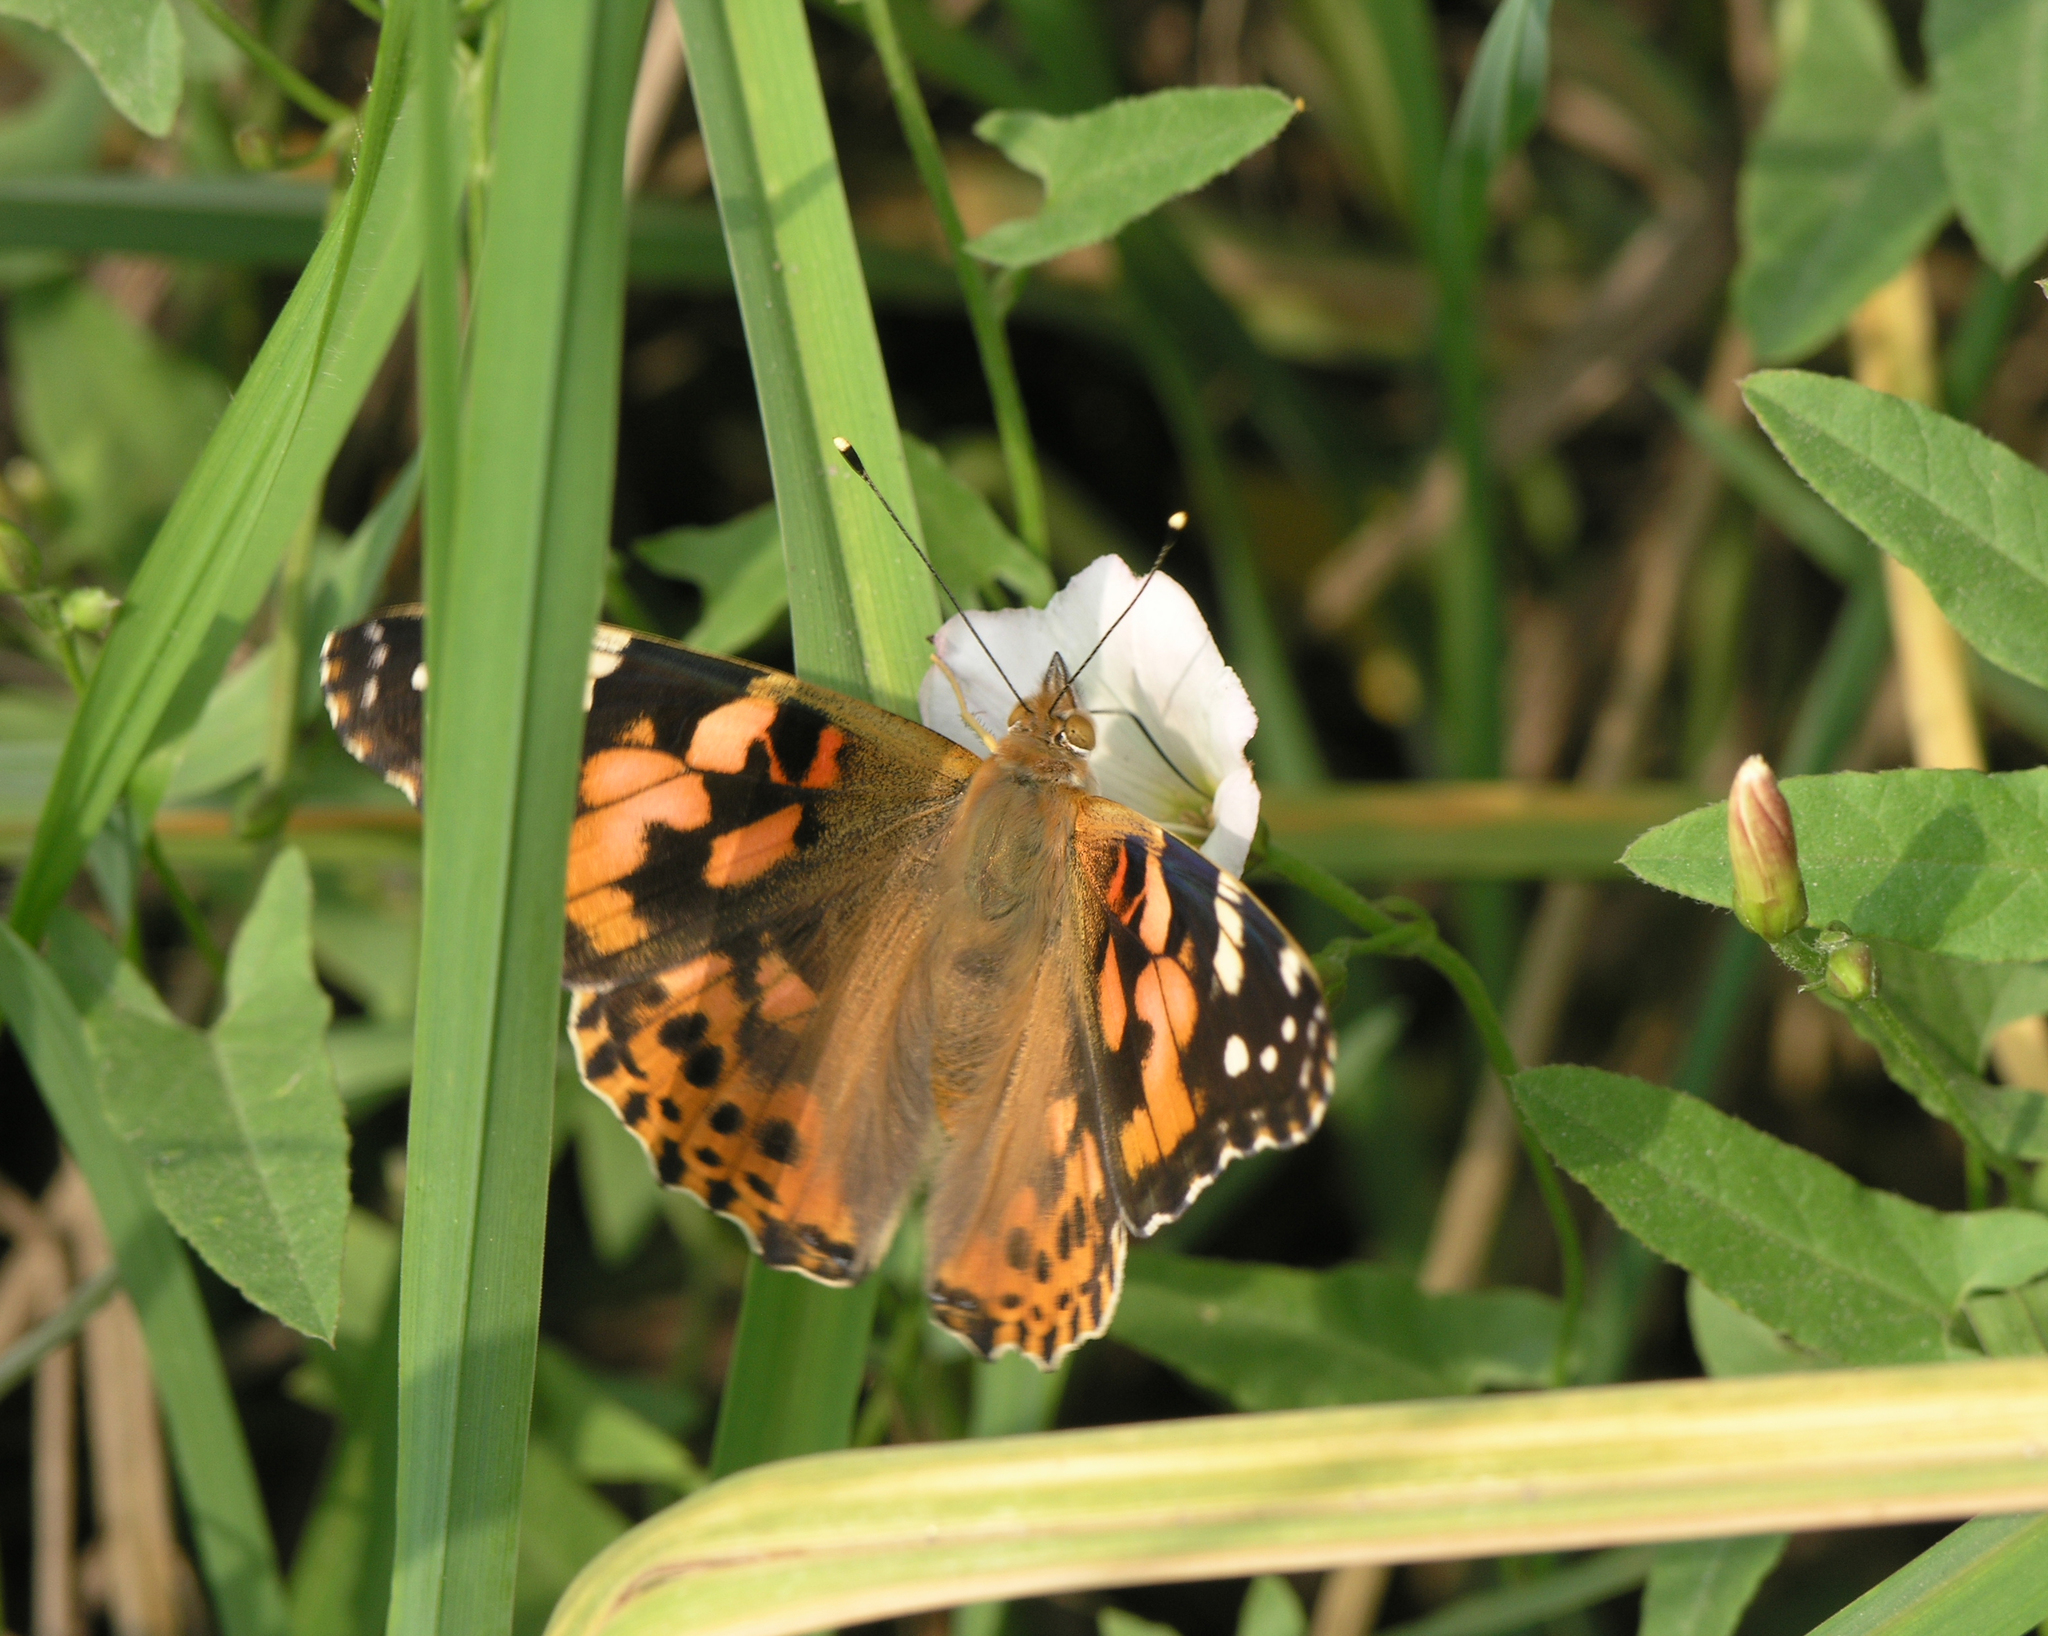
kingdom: Animalia
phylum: Arthropoda
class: Insecta
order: Lepidoptera
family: Nymphalidae
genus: Vanessa
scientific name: Vanessa cardui
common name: Painted lady
